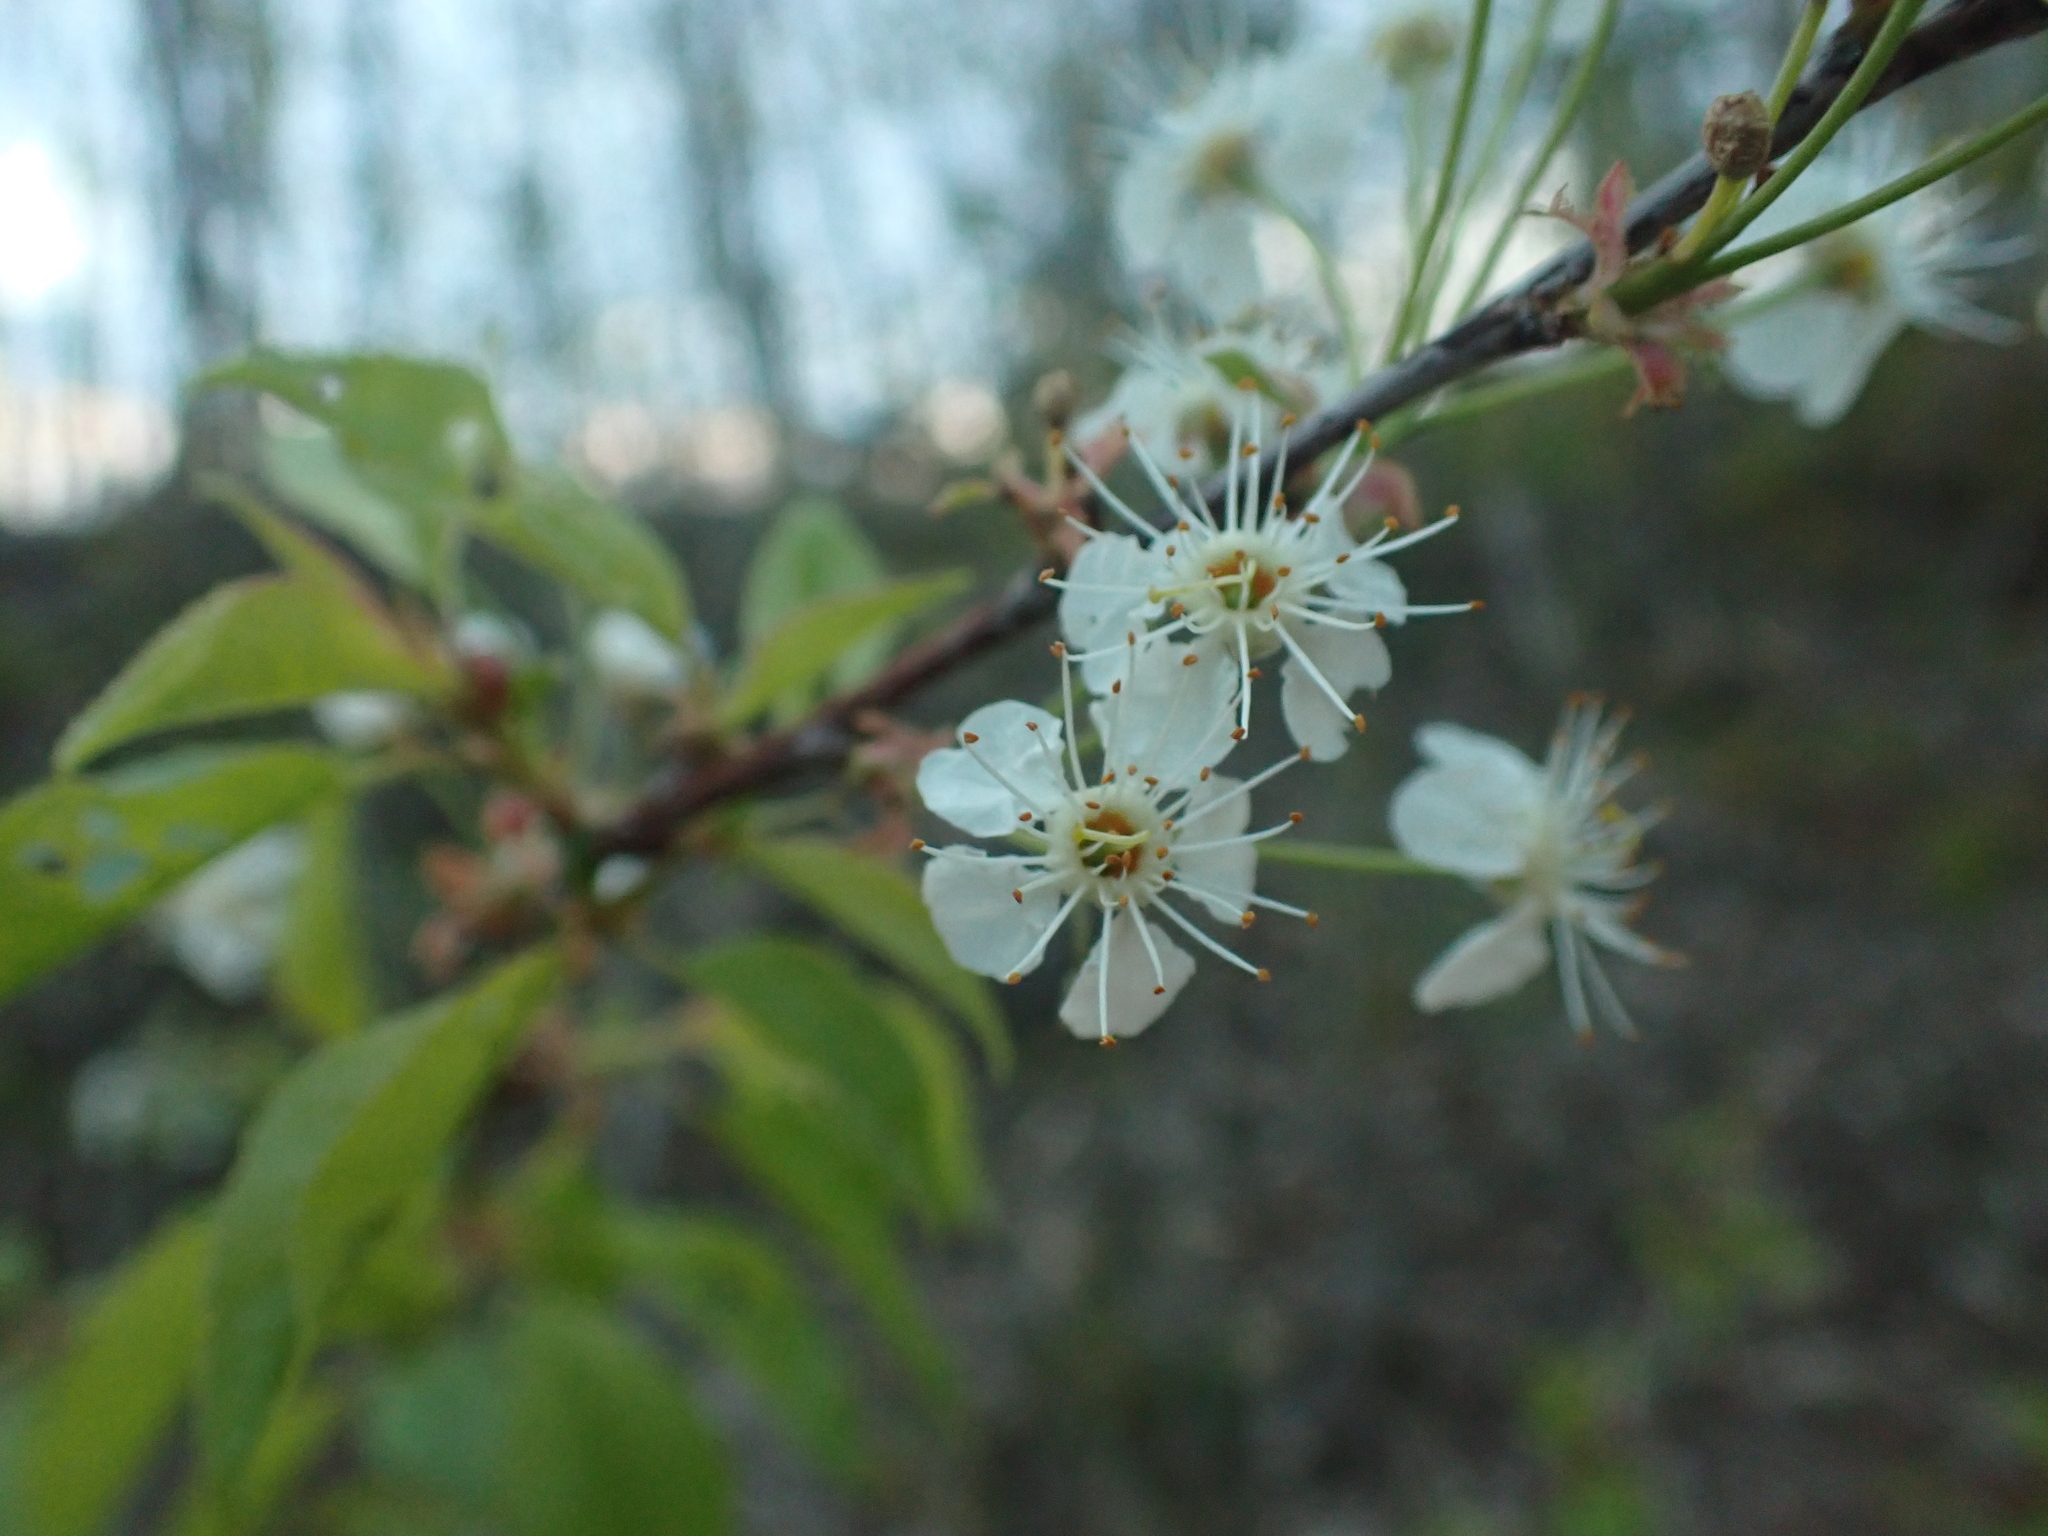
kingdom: Plantae
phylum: Tracheophyta
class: Magnoliopsida
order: Rosales
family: Rosaceae
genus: Prunus
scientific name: Prunus pensylvanica
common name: Pin cherry
